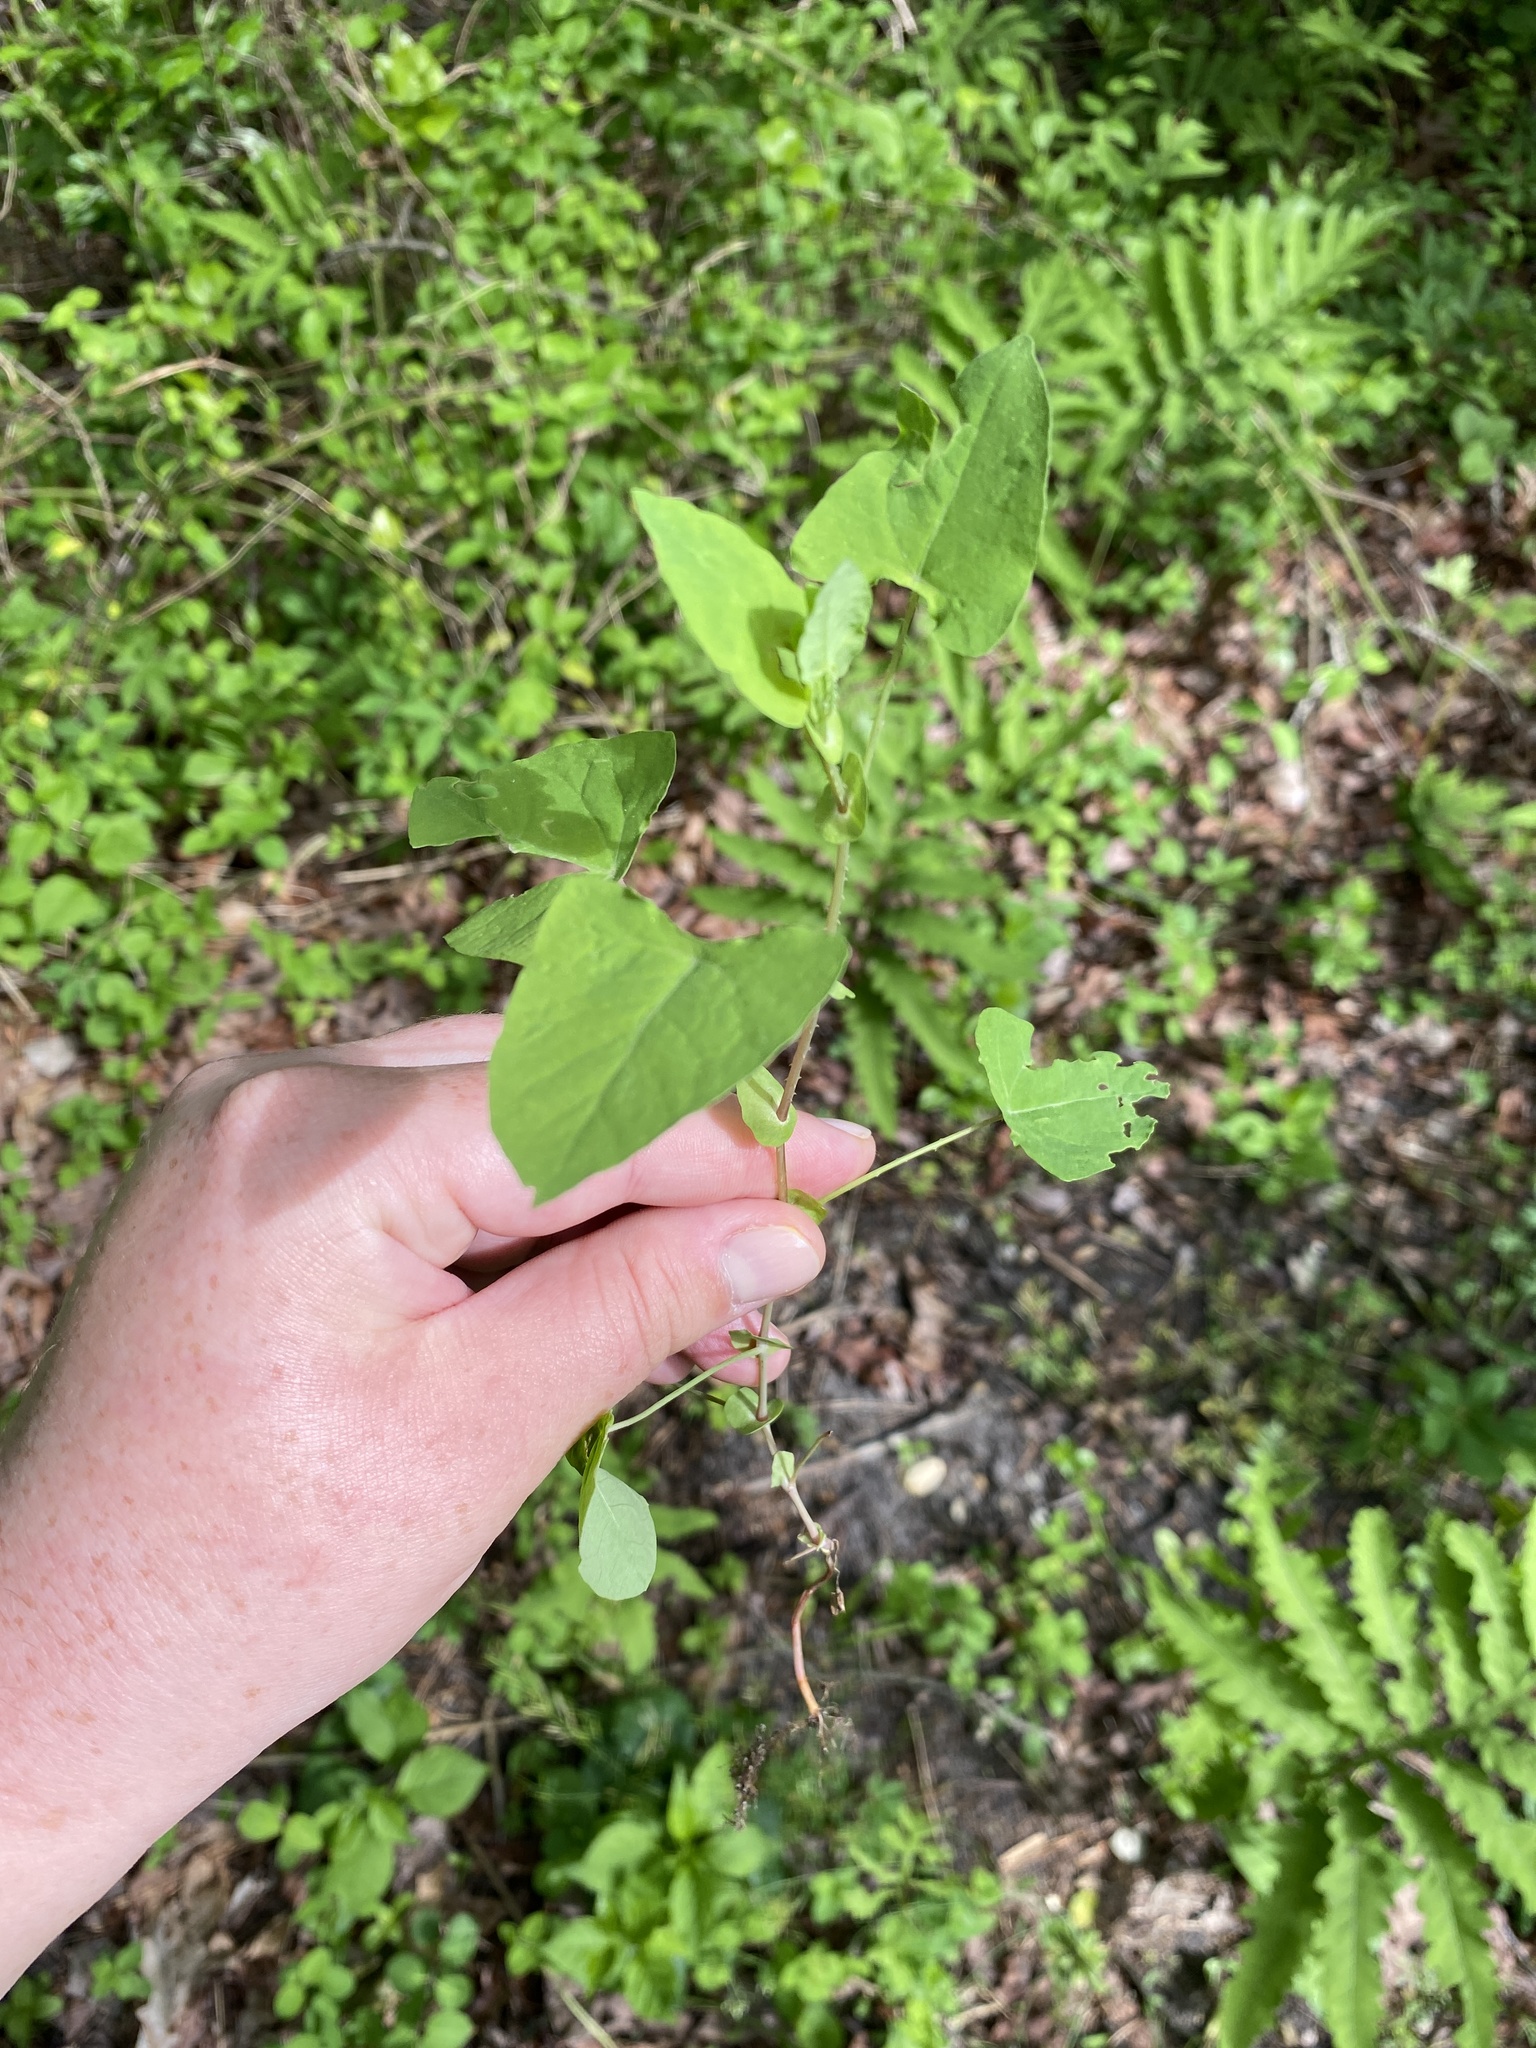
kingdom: Plantae
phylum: Tracheophyta
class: Magnoliopsida
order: Caryophyllales
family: Polygonaceae
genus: Persicaria
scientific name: Persicaria perfoliata
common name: Asiatic tearthumb
